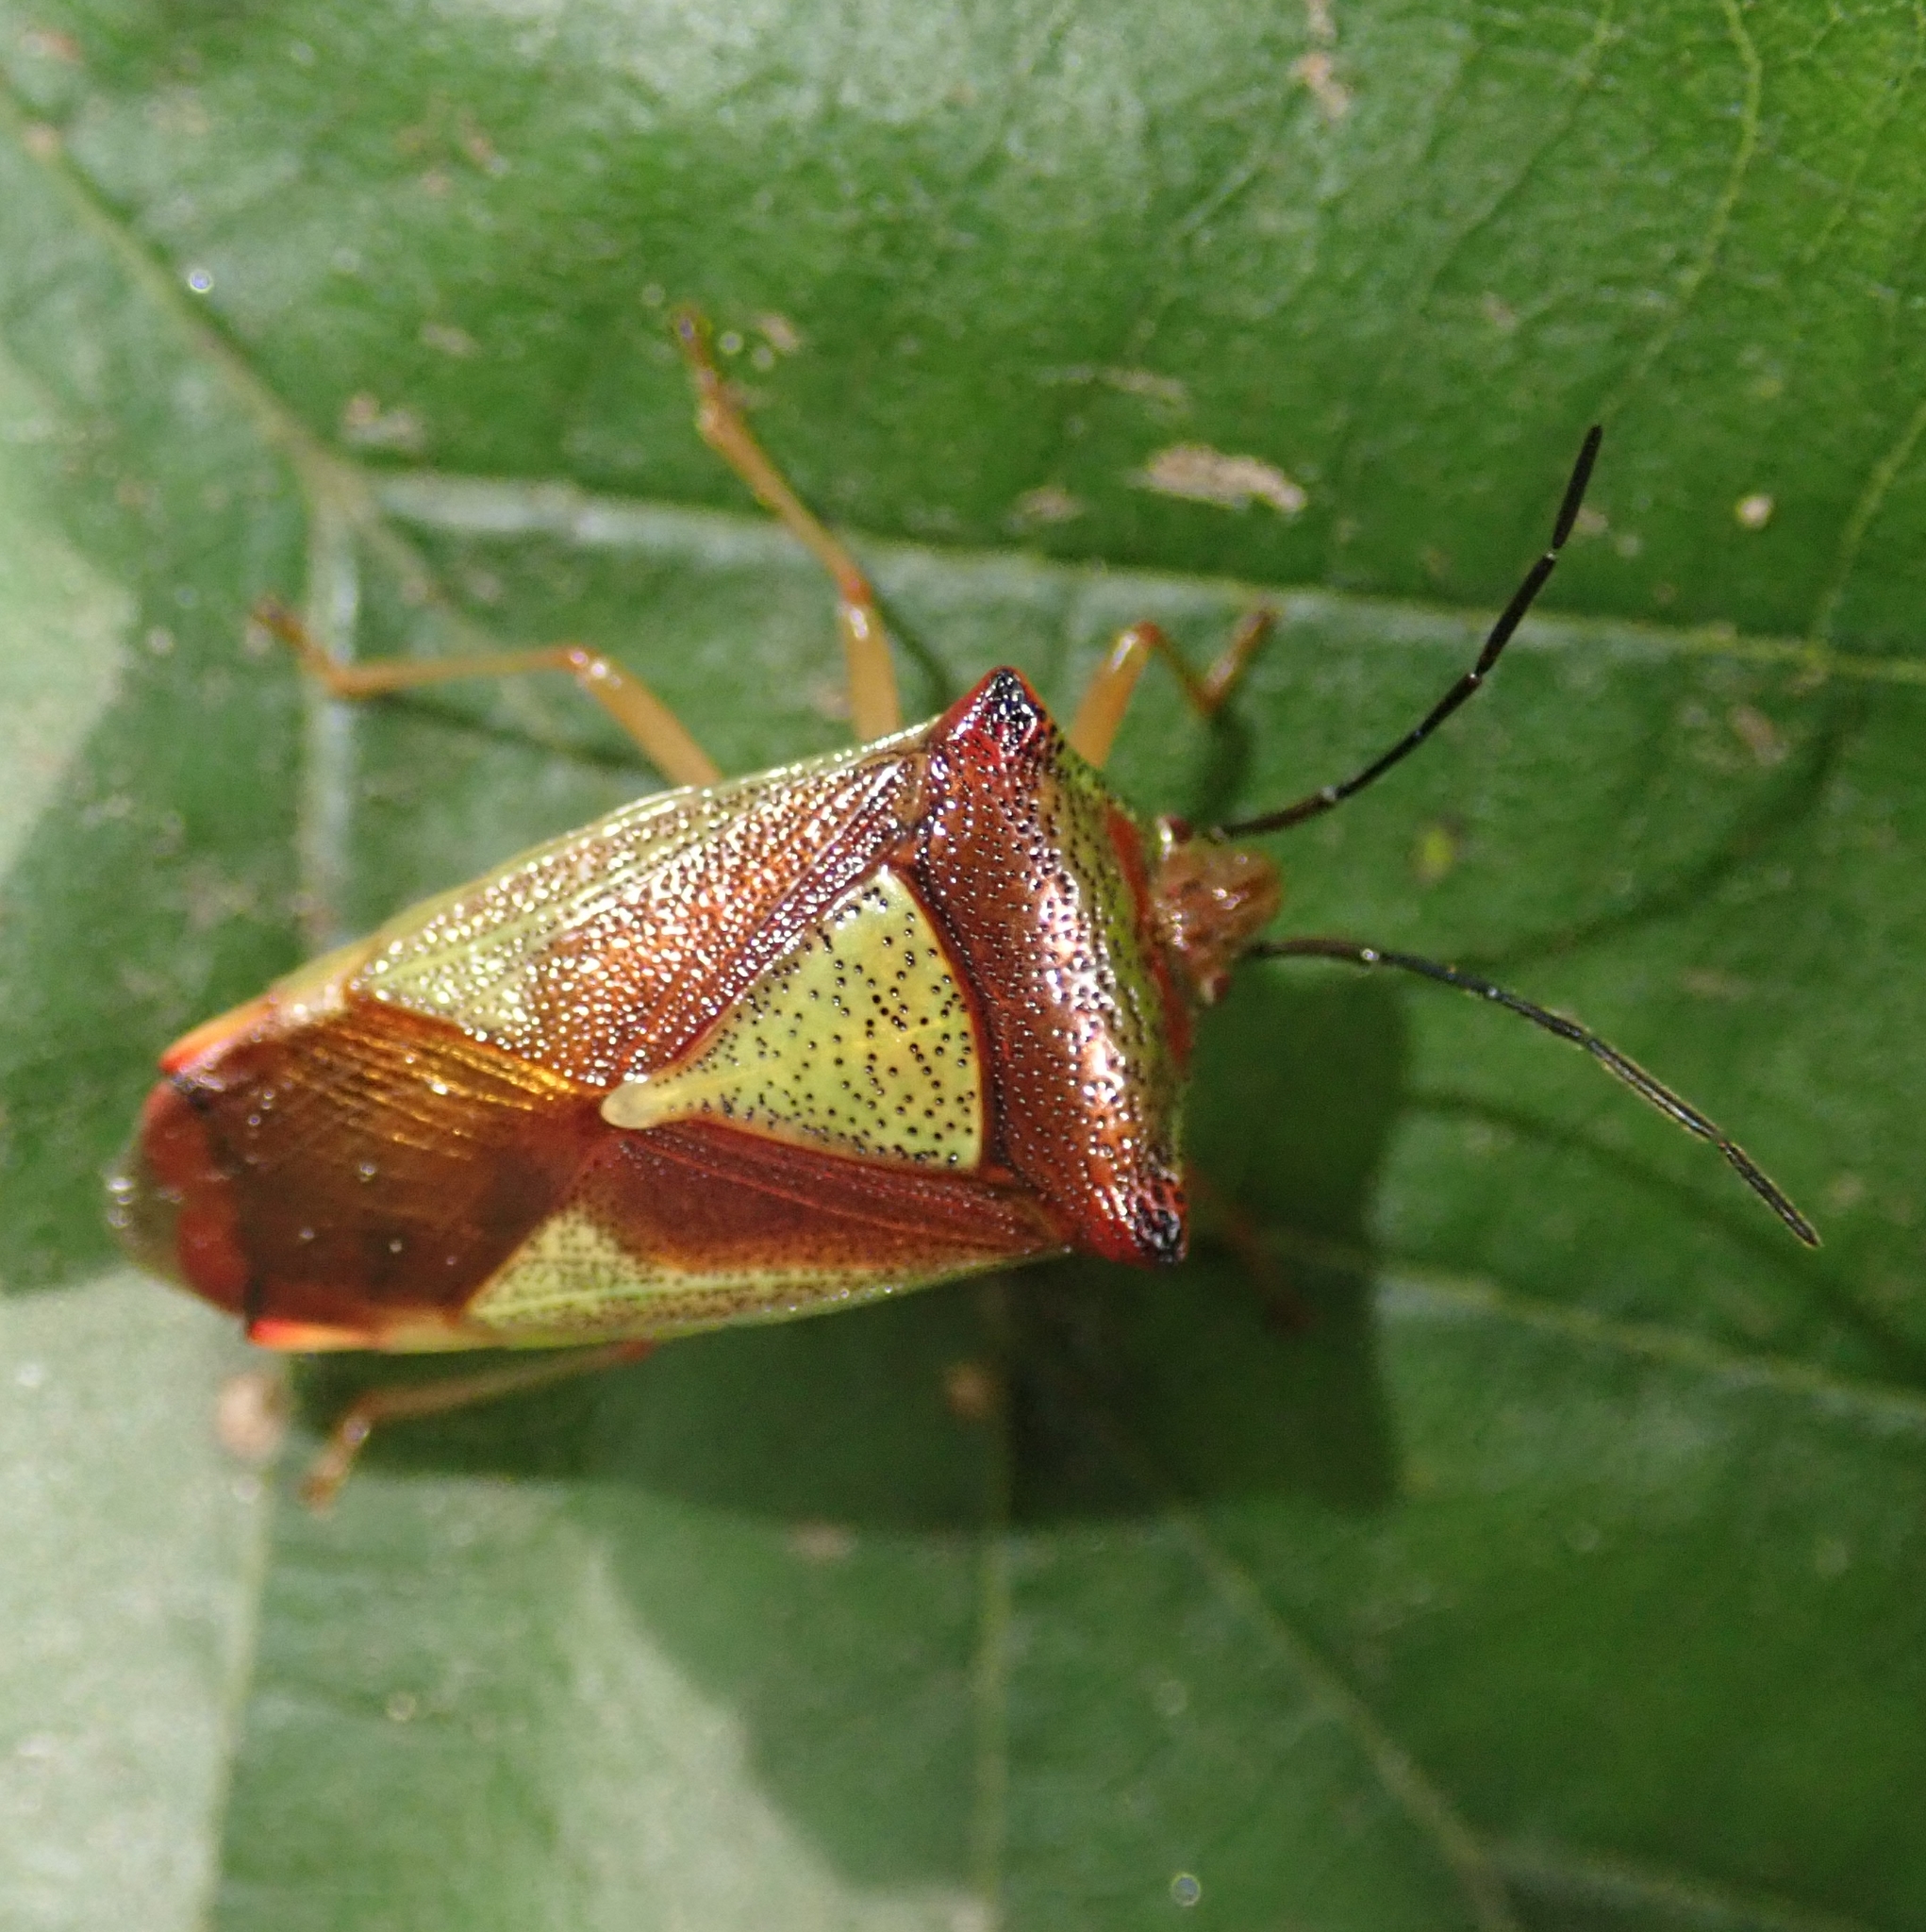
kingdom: Animalia
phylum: Arthropoda
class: Insecta
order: Hemiptera
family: Acanthosomatidae
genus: Acanthosoma
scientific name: Acanthosoma haemorrhoidale
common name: Hawthorn shieldbug
